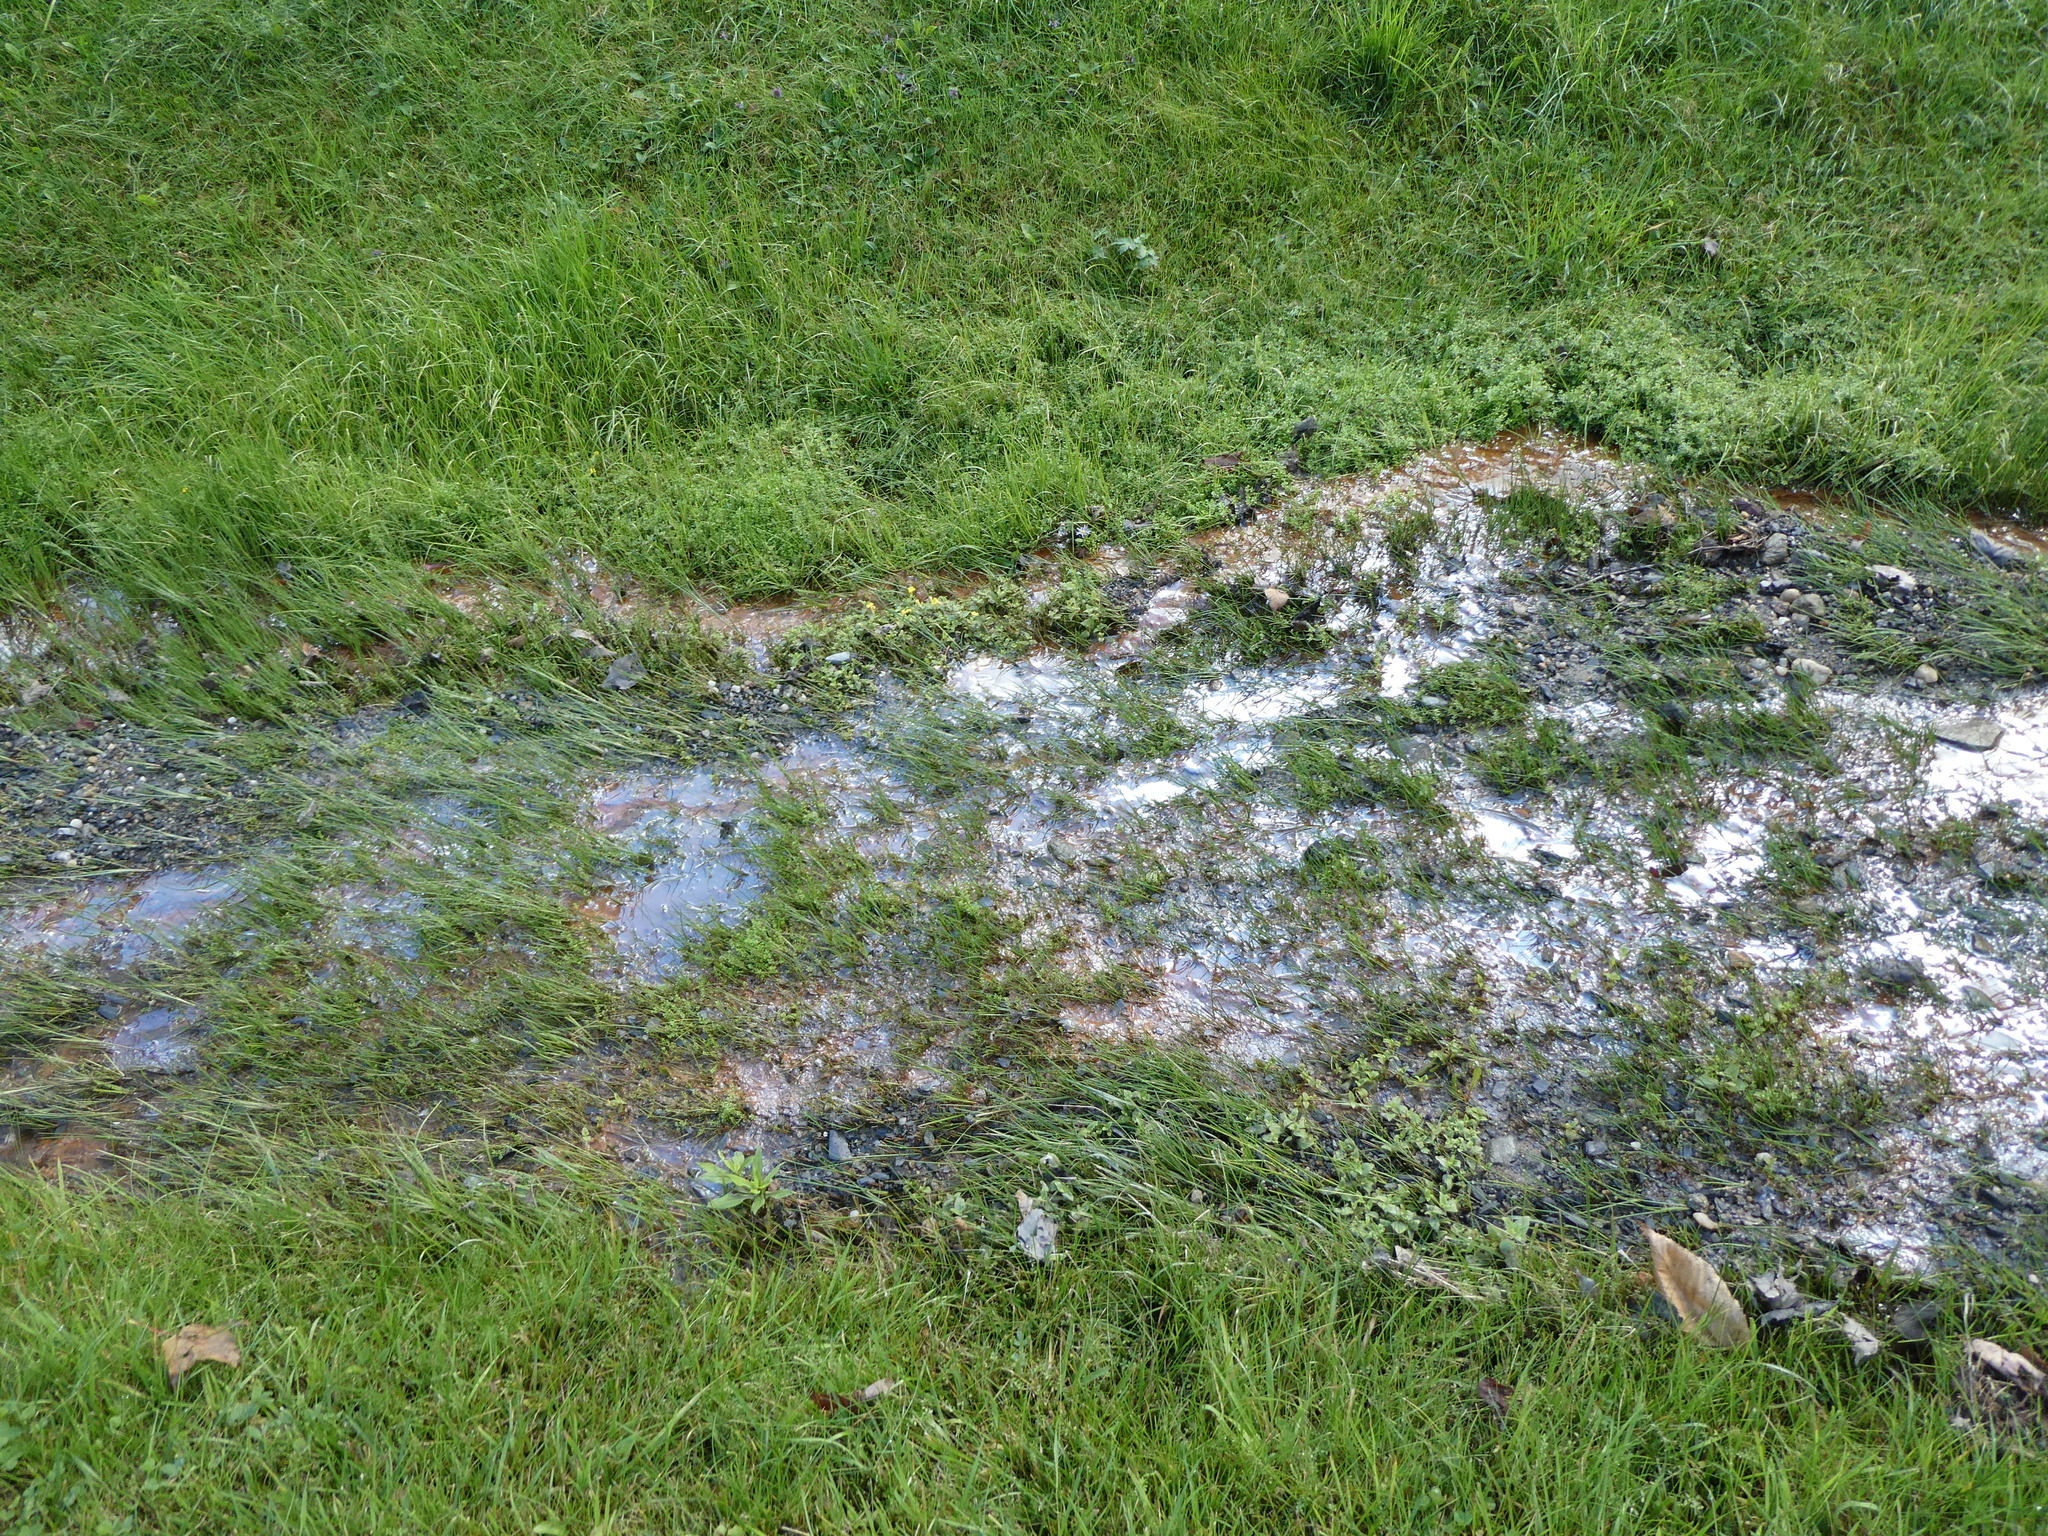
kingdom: Plantae
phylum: Tracheophyta
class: Magnoliopsida
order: Lamiales
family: Phrymaceae
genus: Erythranthe
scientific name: Erythranthe moschata
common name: Muskflower
